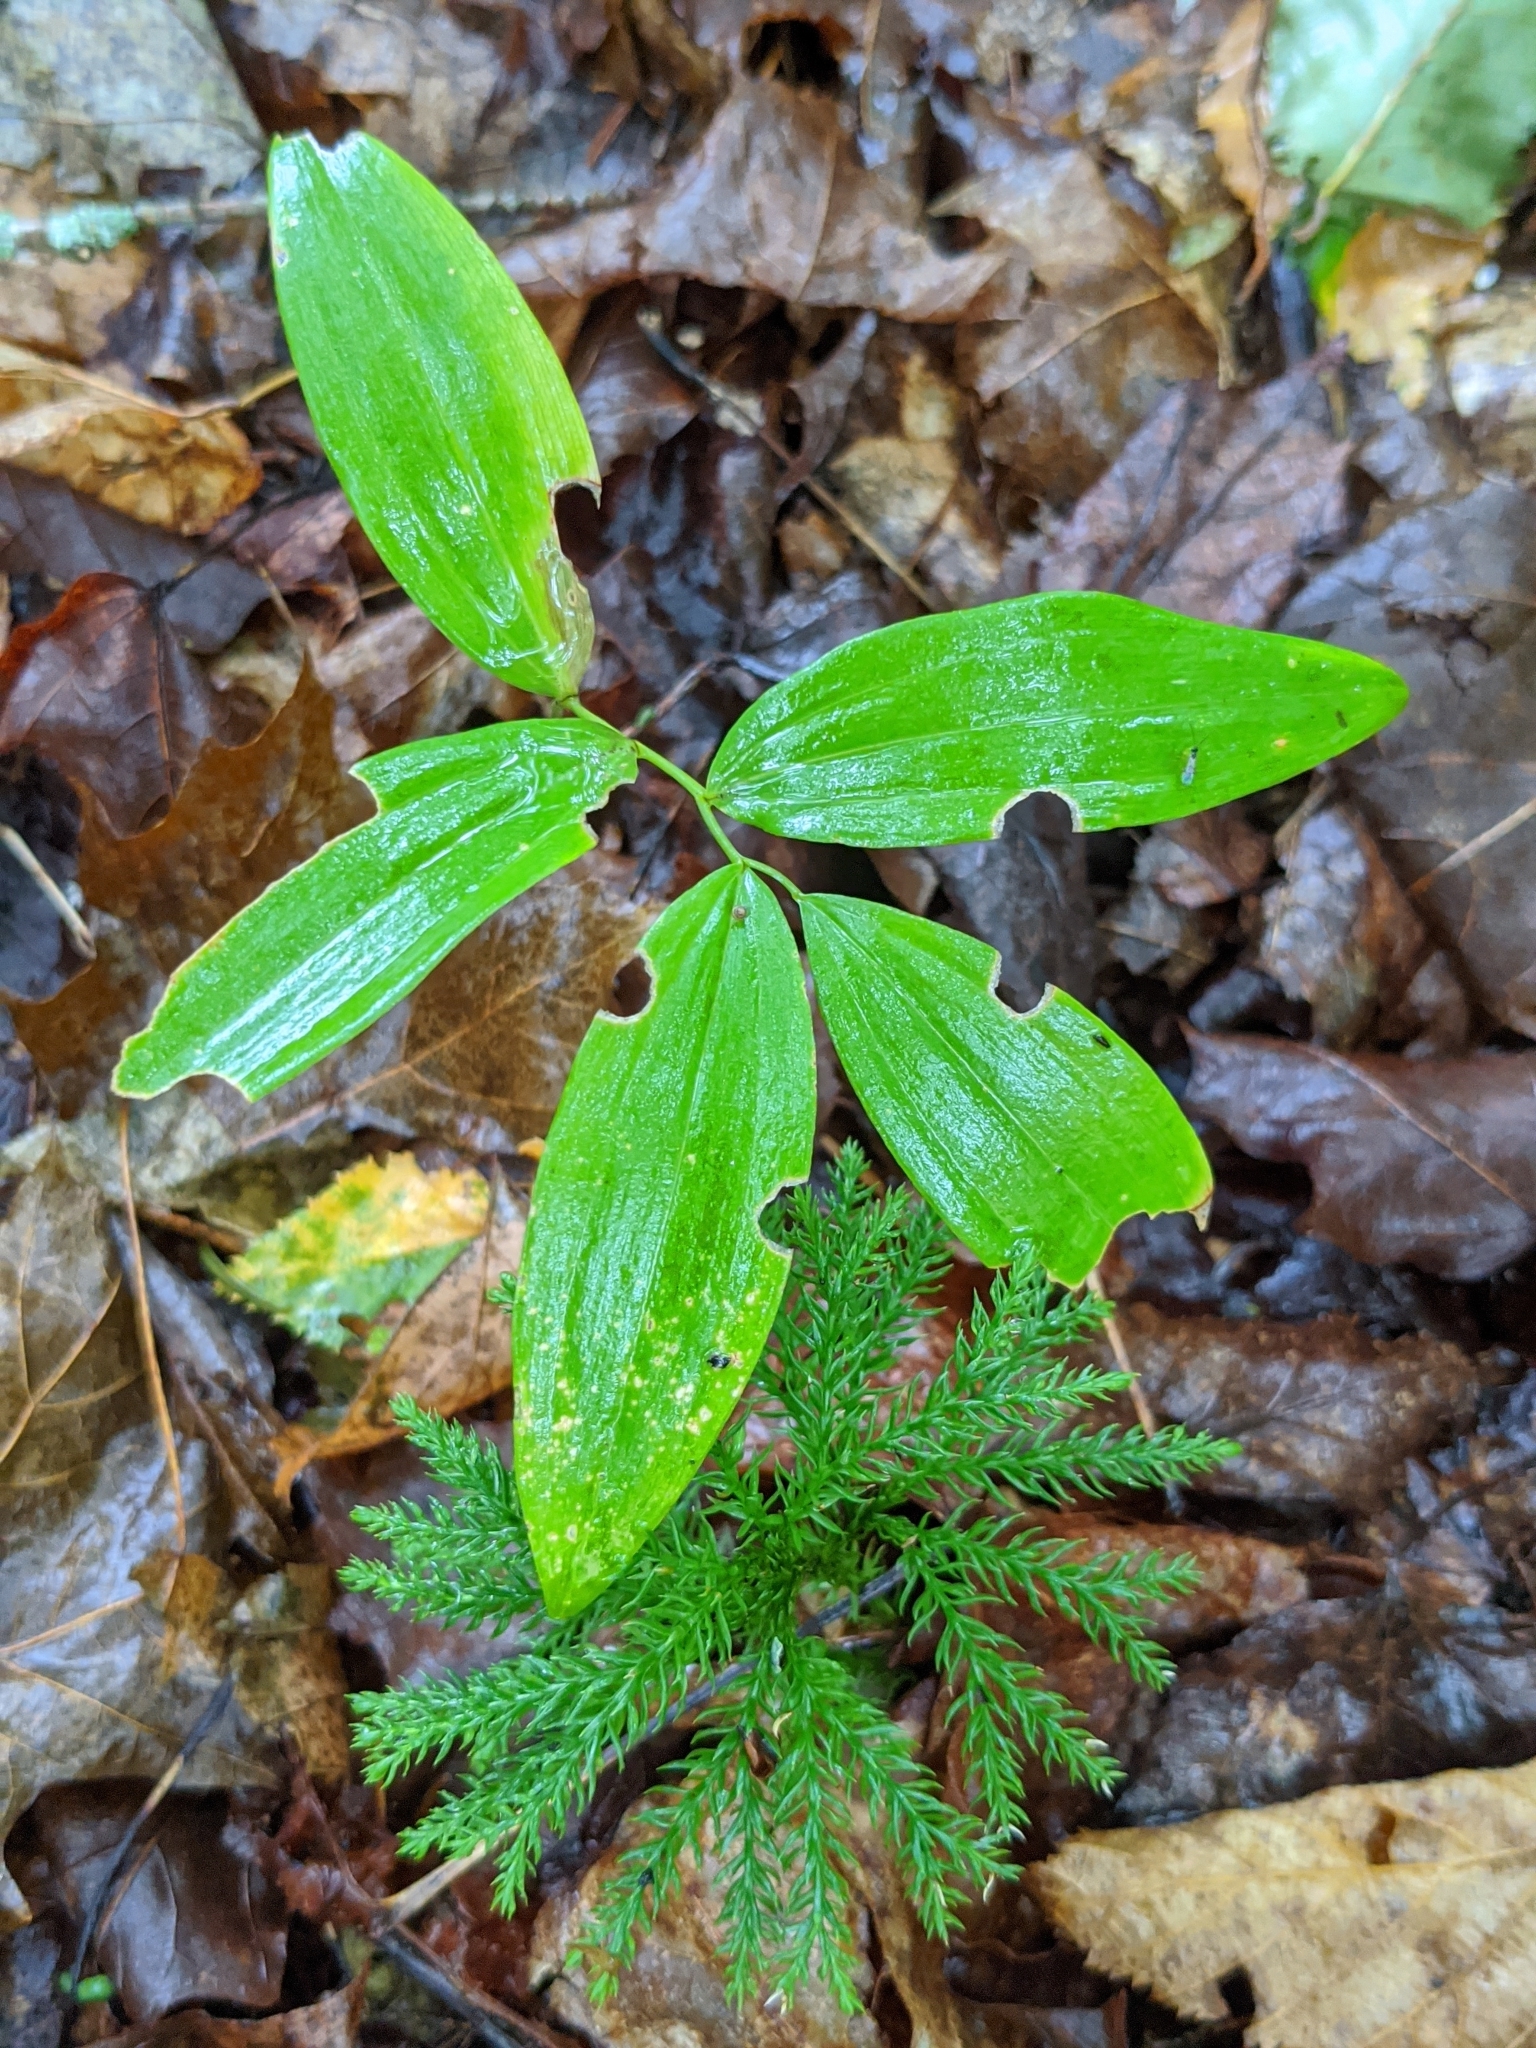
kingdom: Plantae
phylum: Tracheophyta
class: Liliopsida
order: Liliales
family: Colchicaceae
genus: Uvularia
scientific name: Uvularia sessilifolia
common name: Straw-lily
